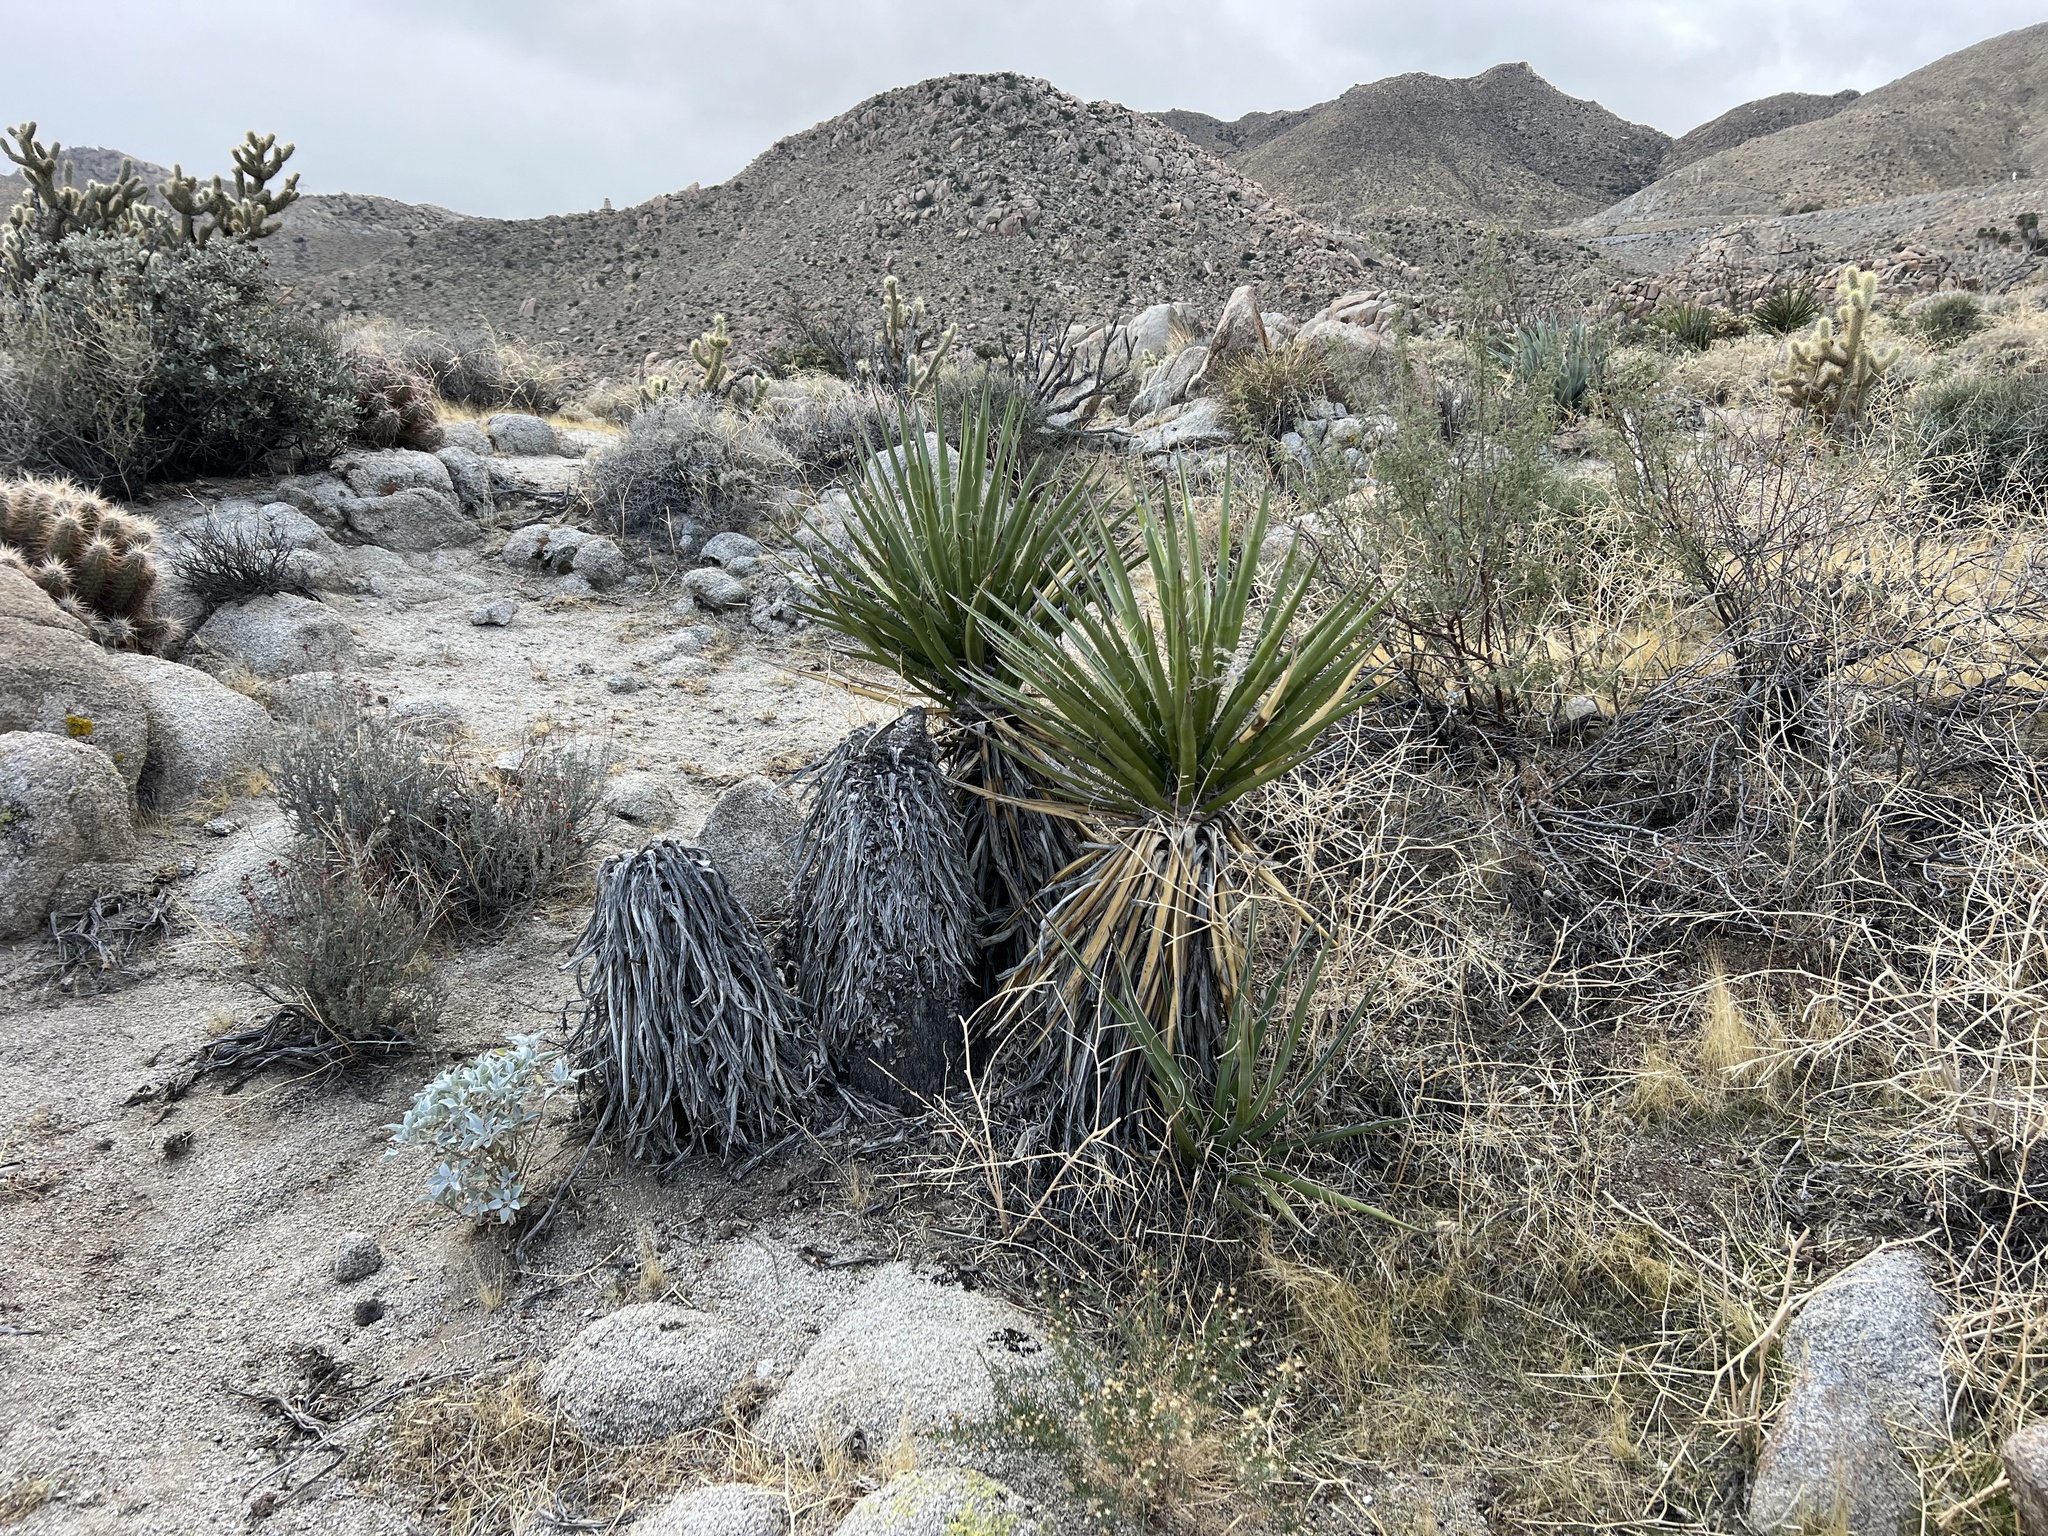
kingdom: Plantae
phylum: Tracheophyta
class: Liliopsida
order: Asparagales
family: Asparagaceae
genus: Yucca
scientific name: Yucca schidigera
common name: Mojave yucca
